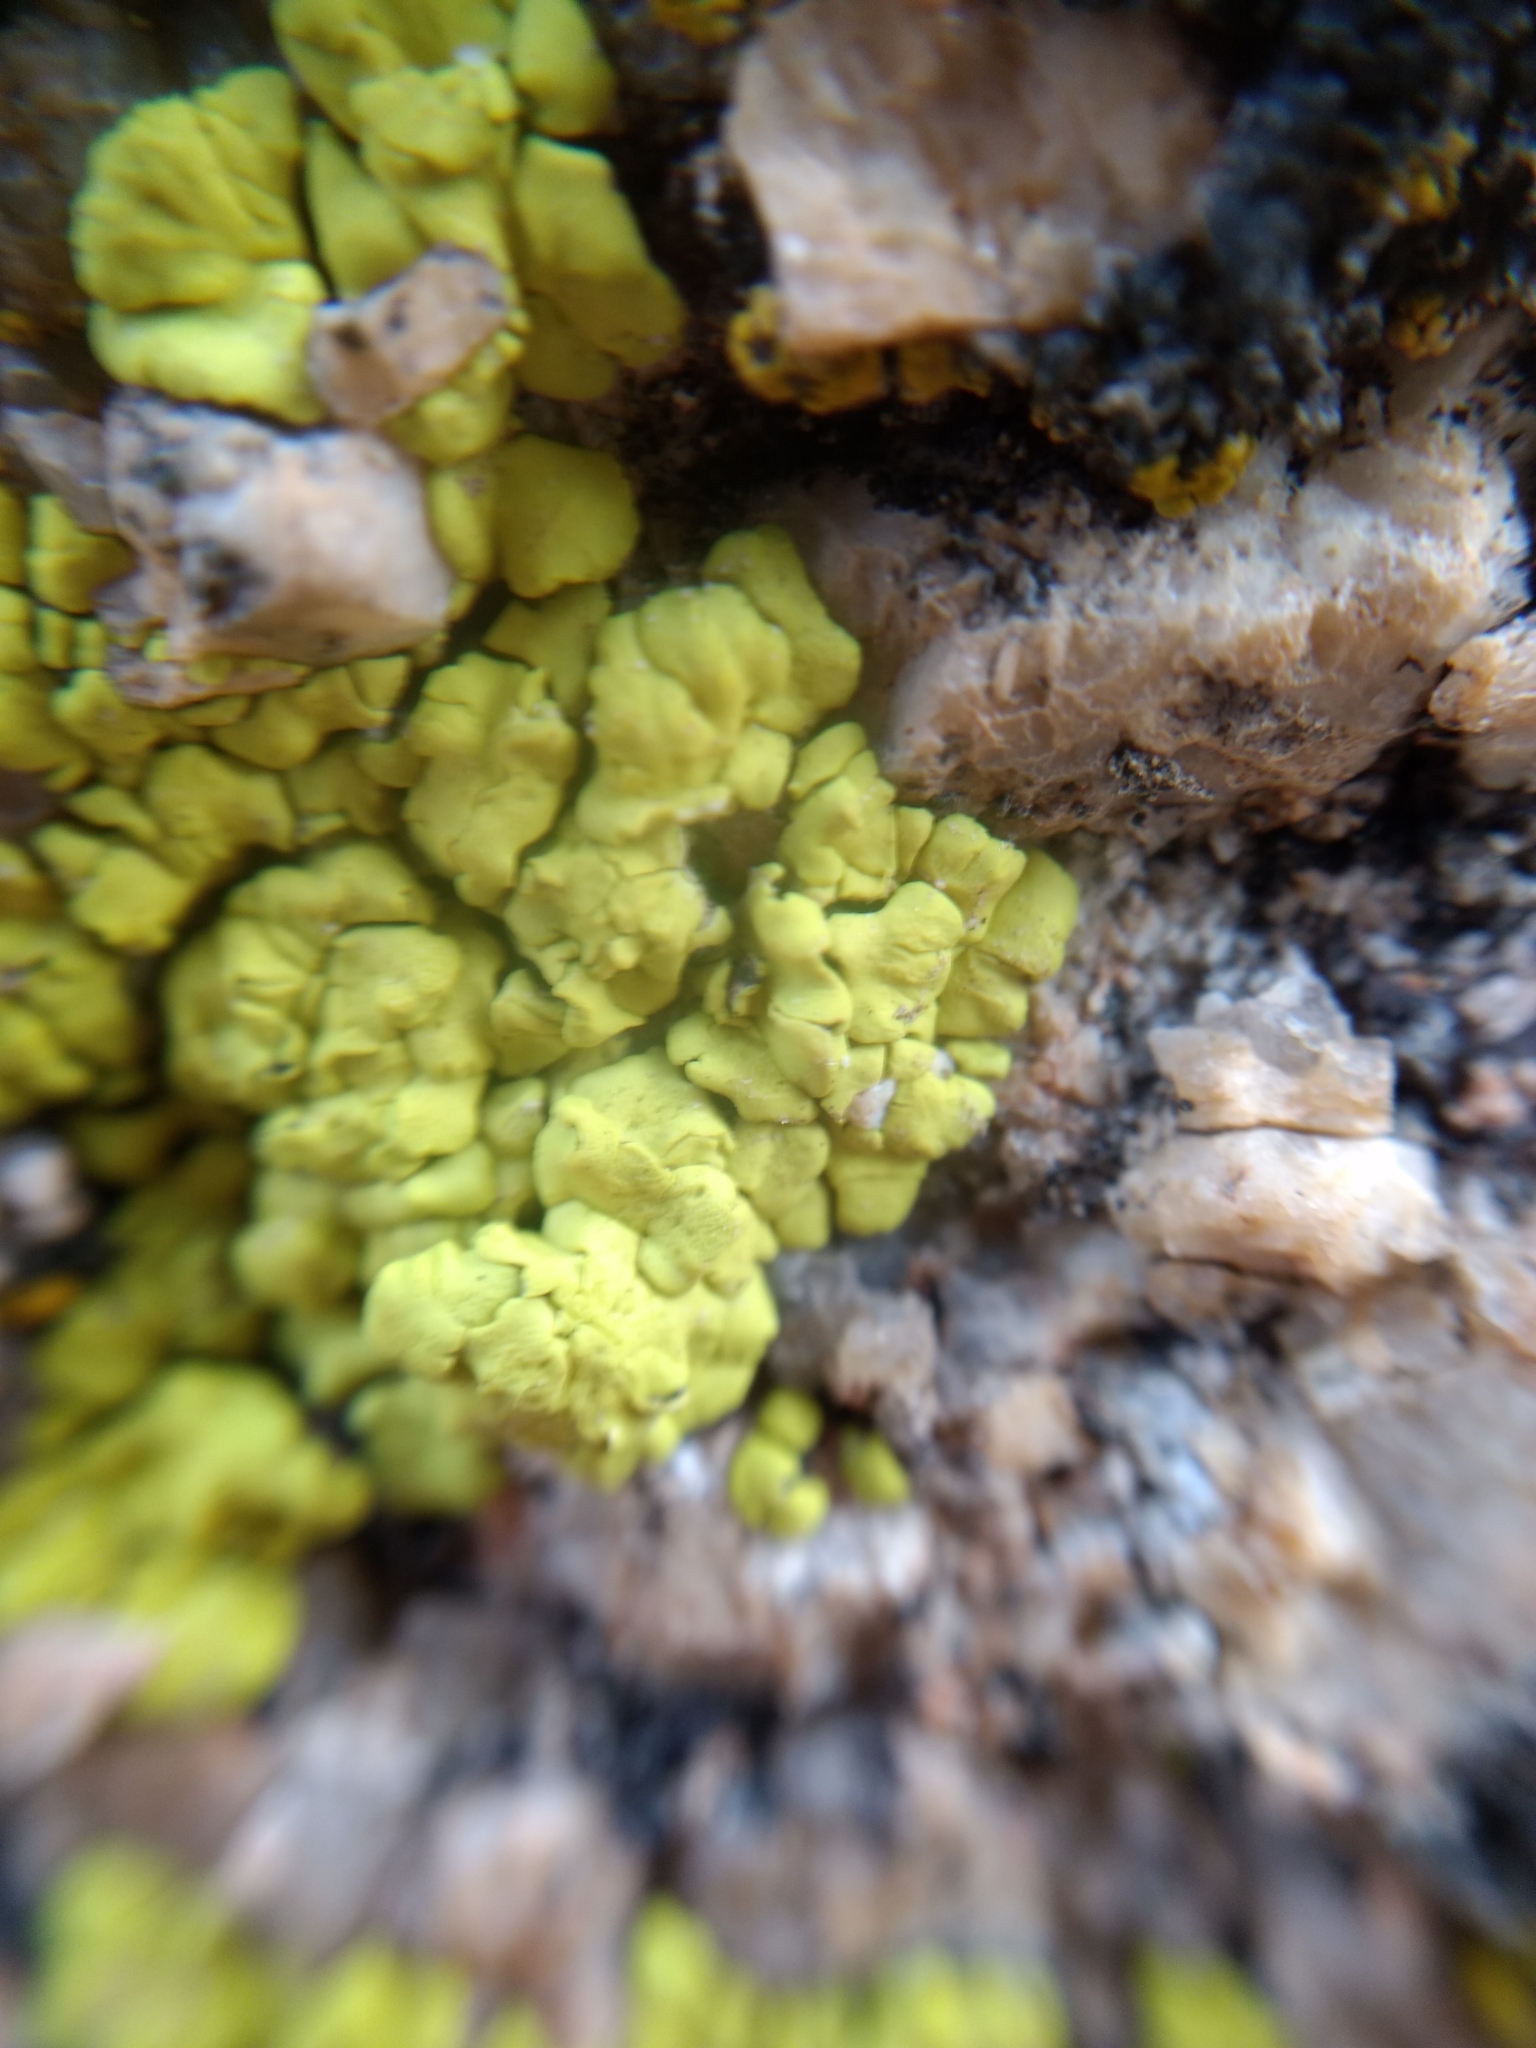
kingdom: Fungi
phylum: Ascomycota
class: Lecanoromycetes
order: Acarosporales
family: Acarosporaceae
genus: Acarospora
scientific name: Acarospora socialis
